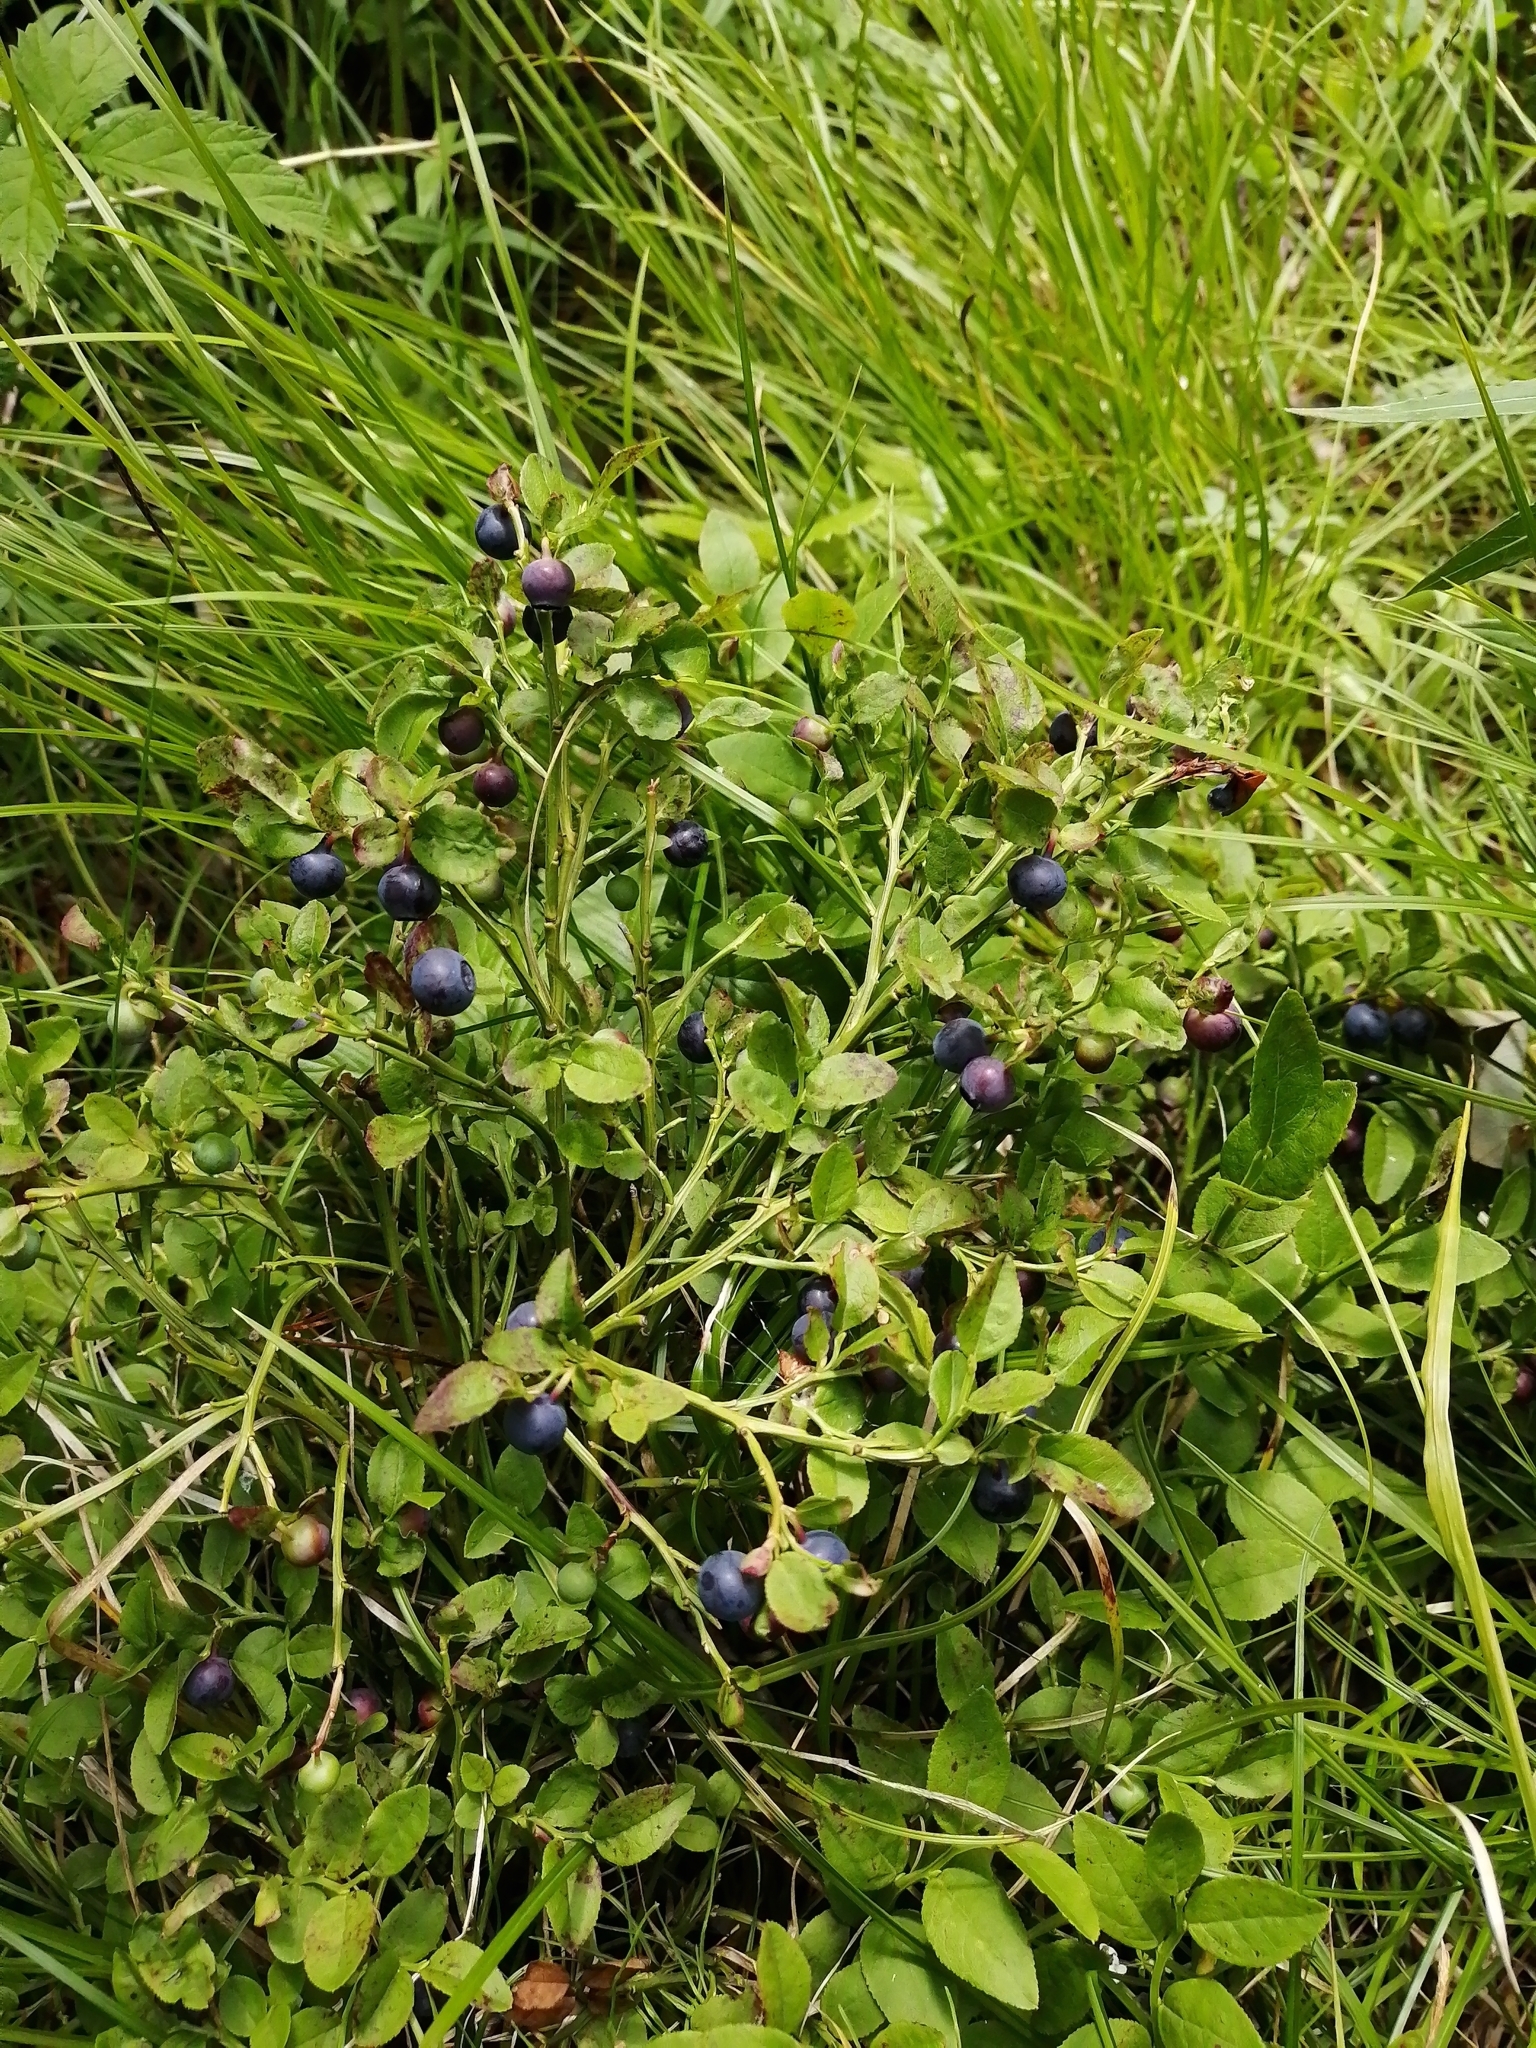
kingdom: Plantae
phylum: Tracheophyta
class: Magnoliopsida
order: Ericales
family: Ericaceae
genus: Vaccinium
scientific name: Vaccinium myrtillus
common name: Bilberry
